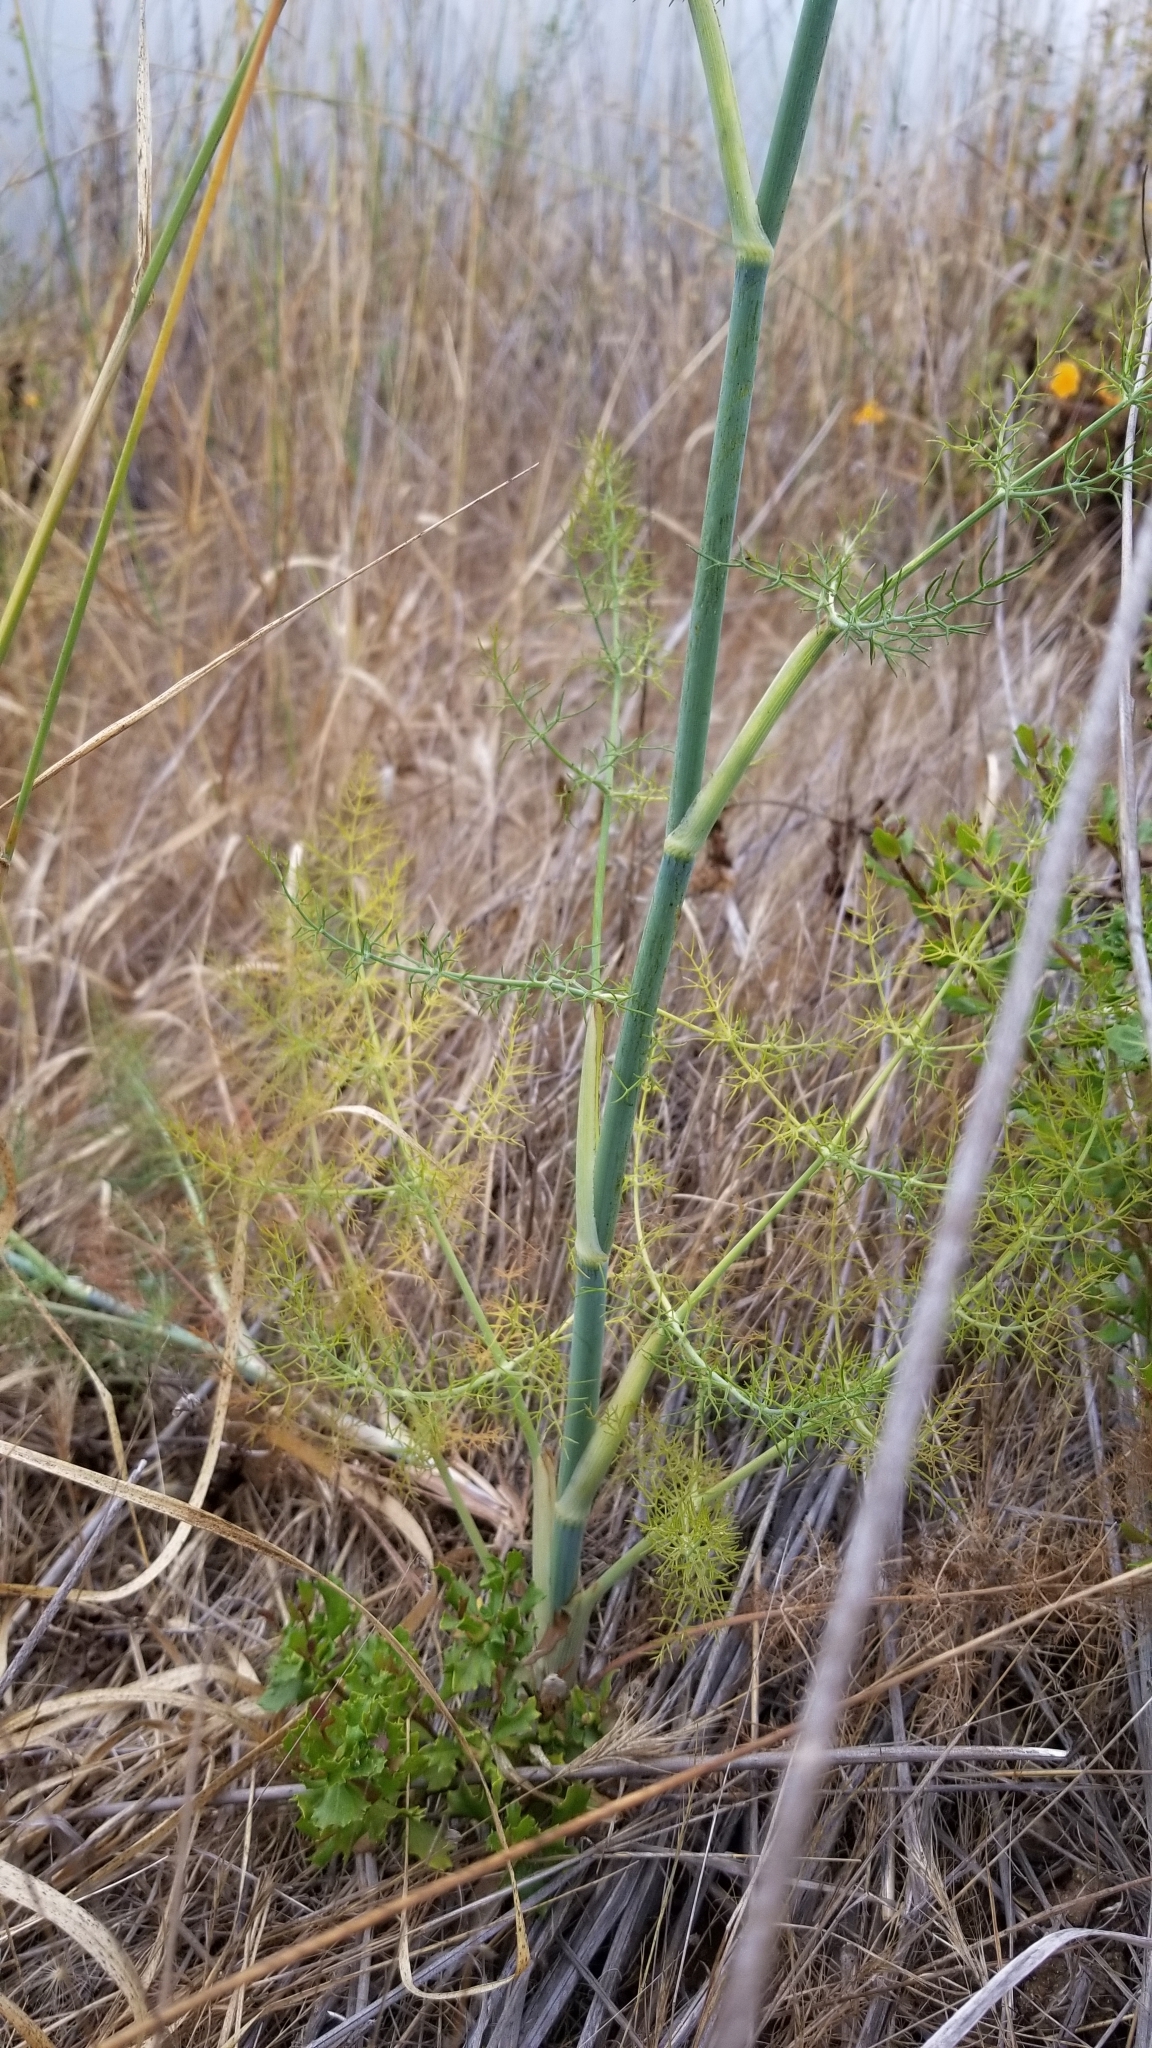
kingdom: Plantae
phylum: Tracheophyta
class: Magnoliopsida
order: Apiales
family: Apiaceae
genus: Foeniculum
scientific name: Foeniculum vulgare
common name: Fennel
